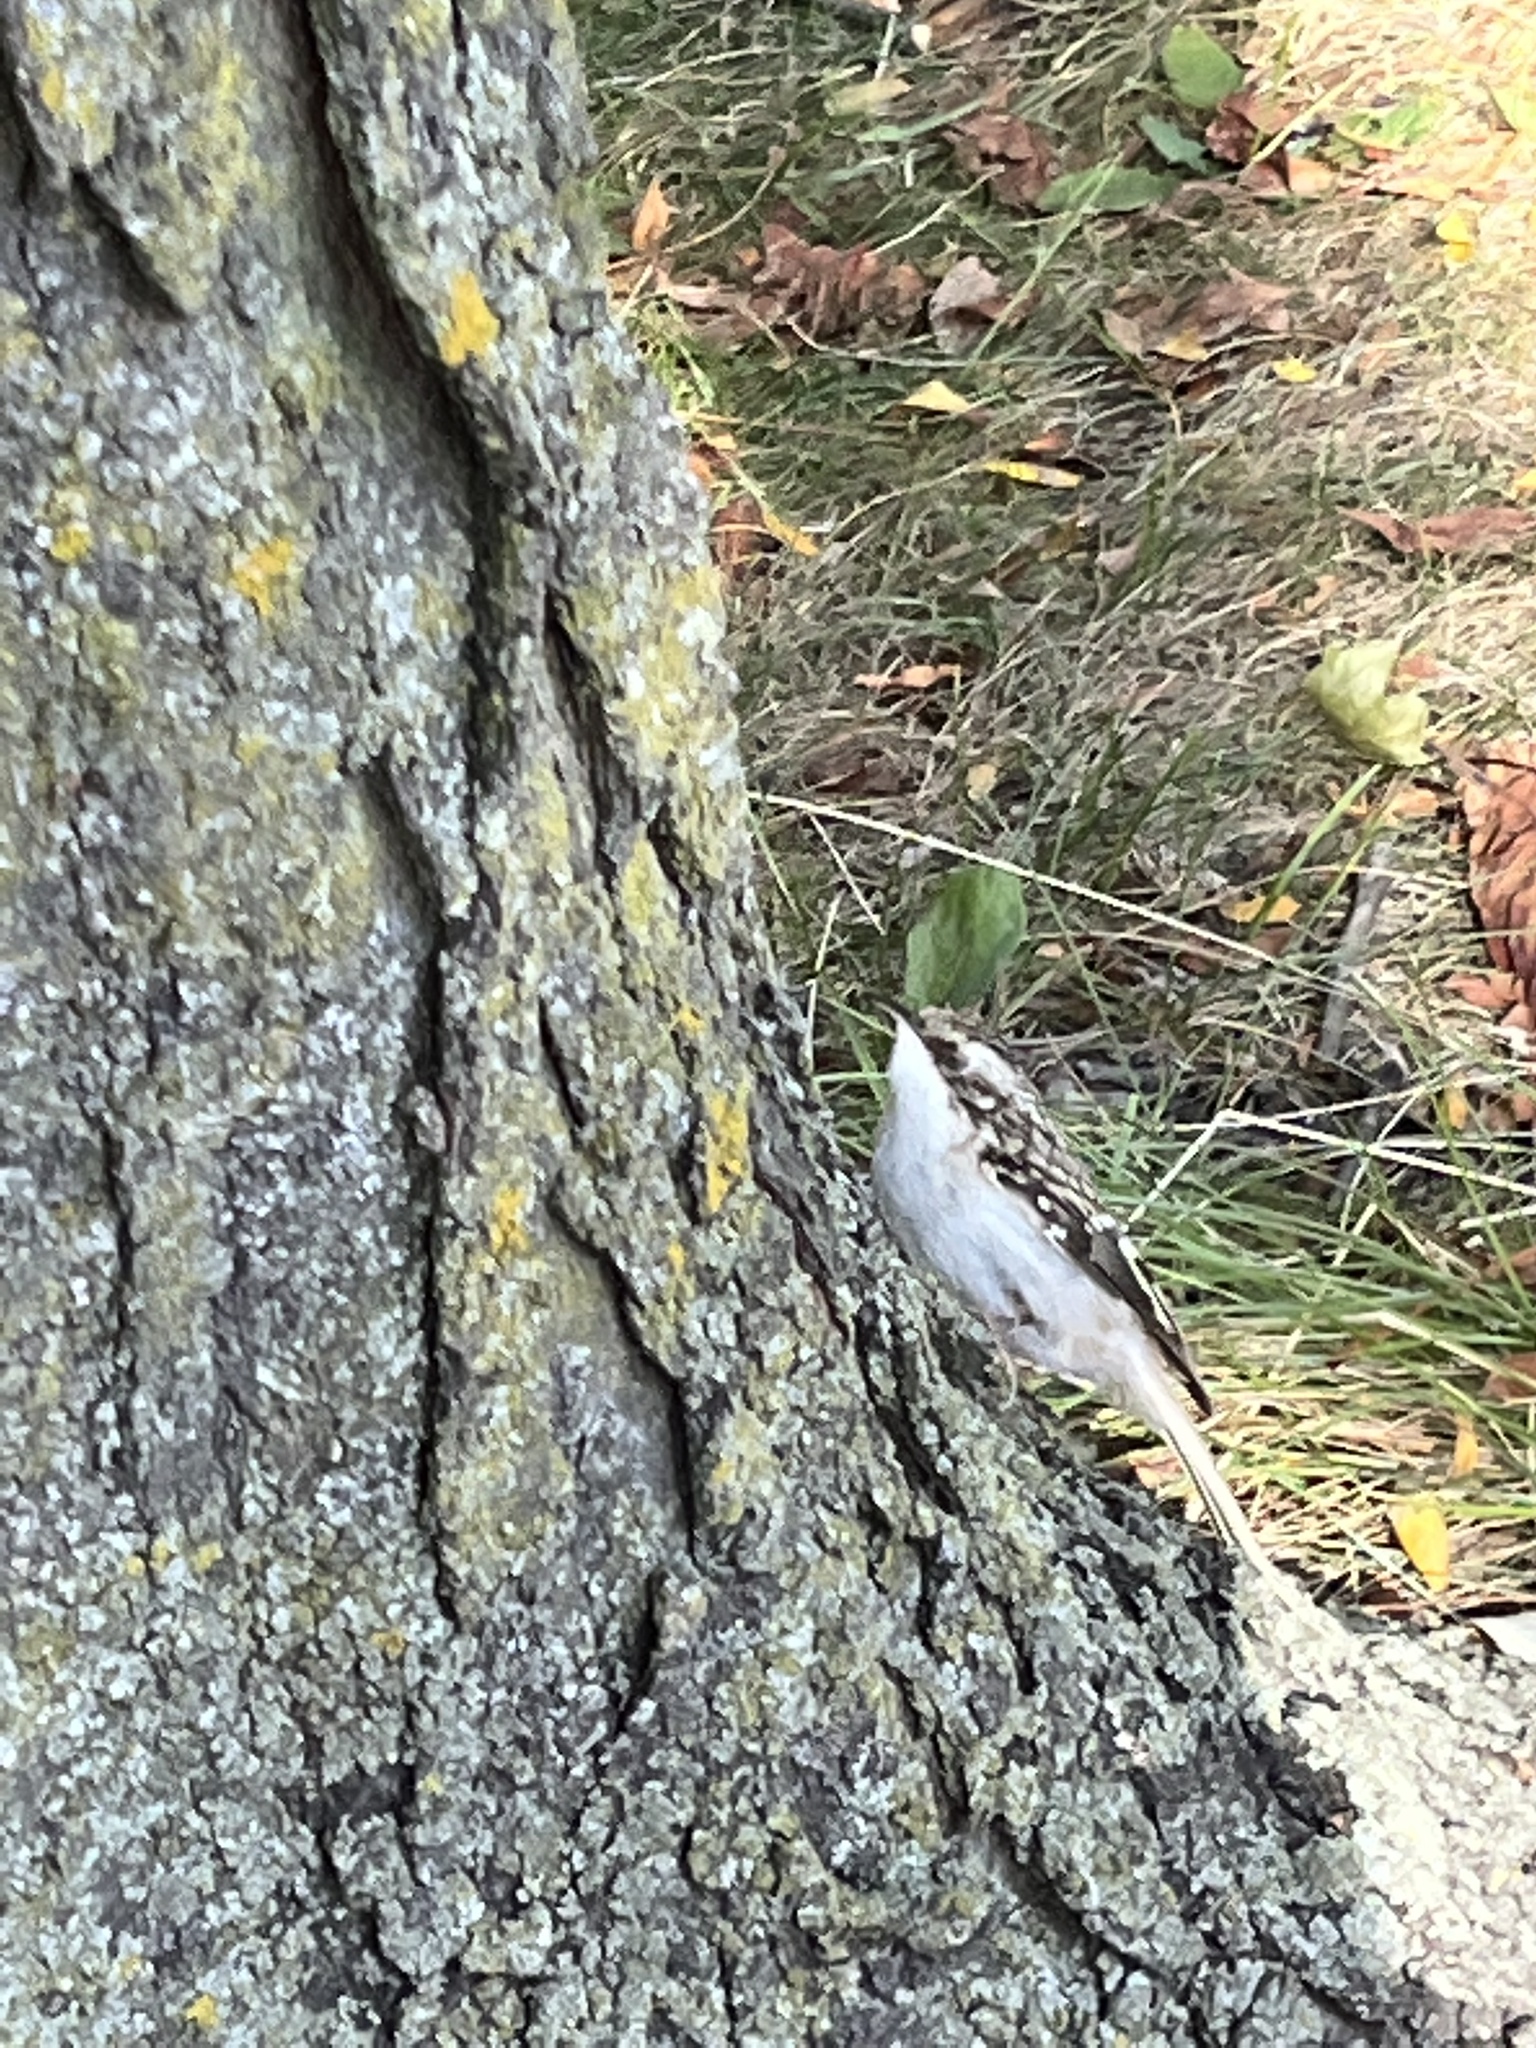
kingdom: Animalia
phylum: Chordata
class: Aves
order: Passeriformes
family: Certhiidae
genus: Certhia
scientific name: Certhia americana
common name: Brown creeper
